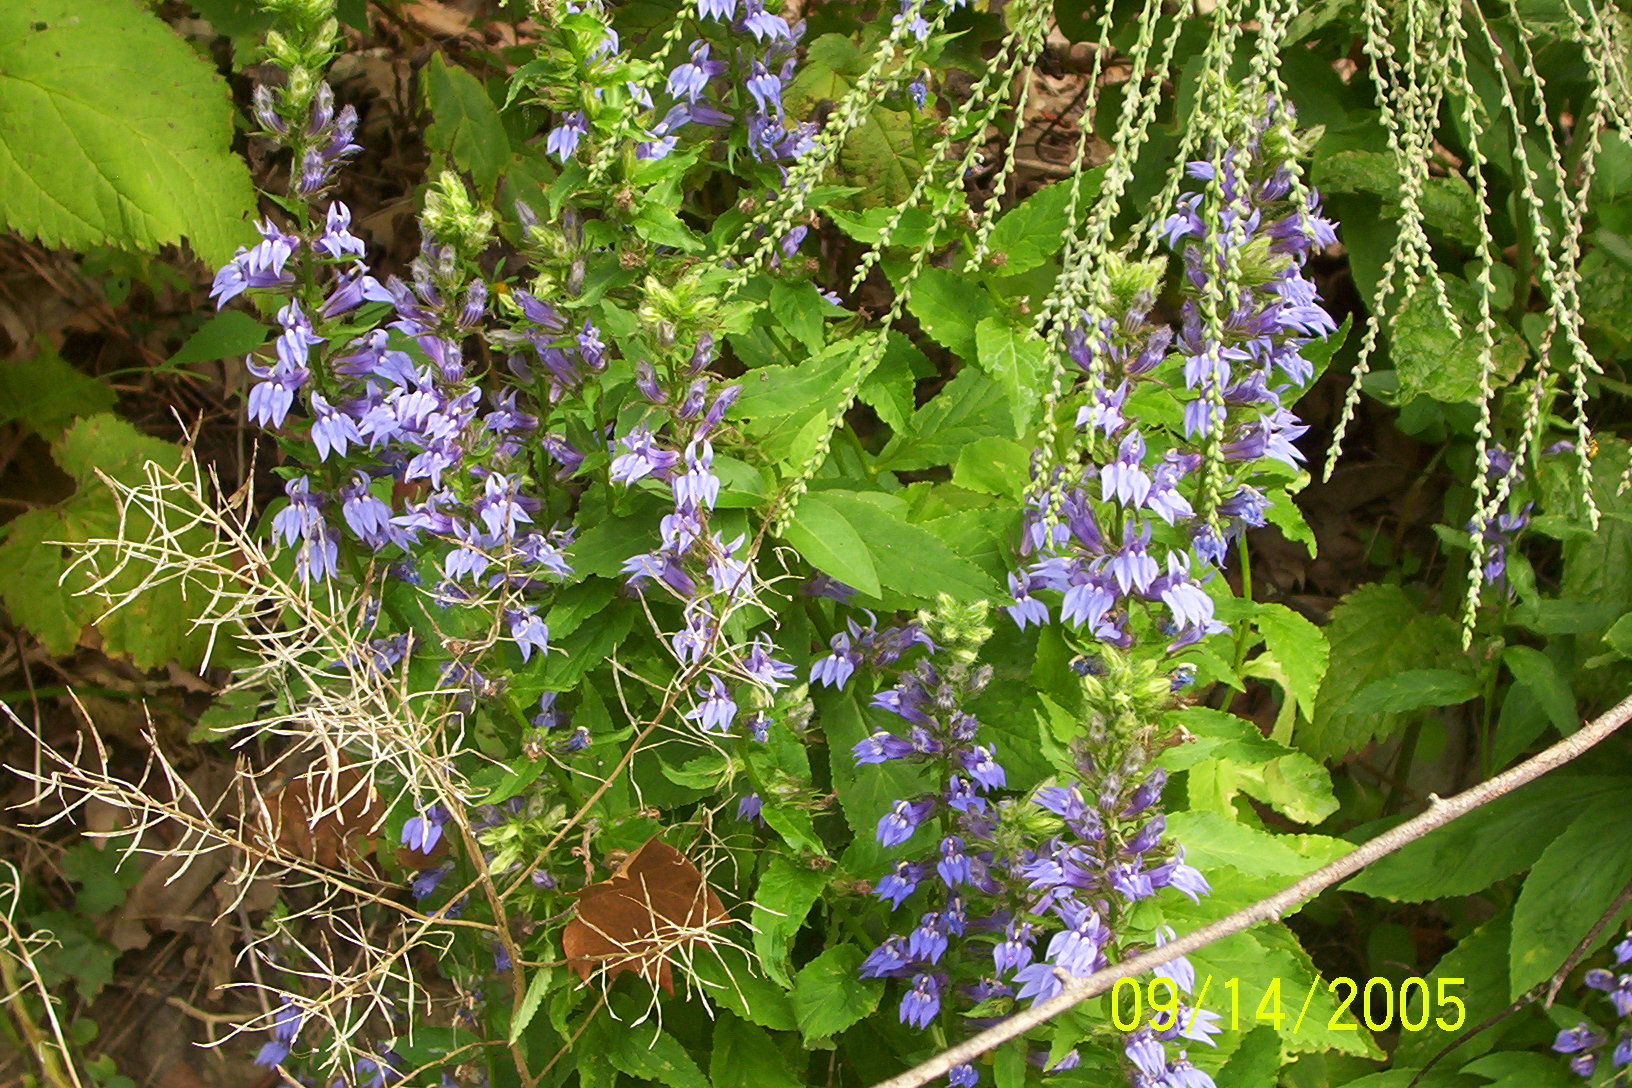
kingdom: Plantae
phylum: Tracheophyta
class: Magnoliopsida
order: Asterales
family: Campanulaceae
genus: Lobelia
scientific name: Lobelia siphilitica
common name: Great lobelia
